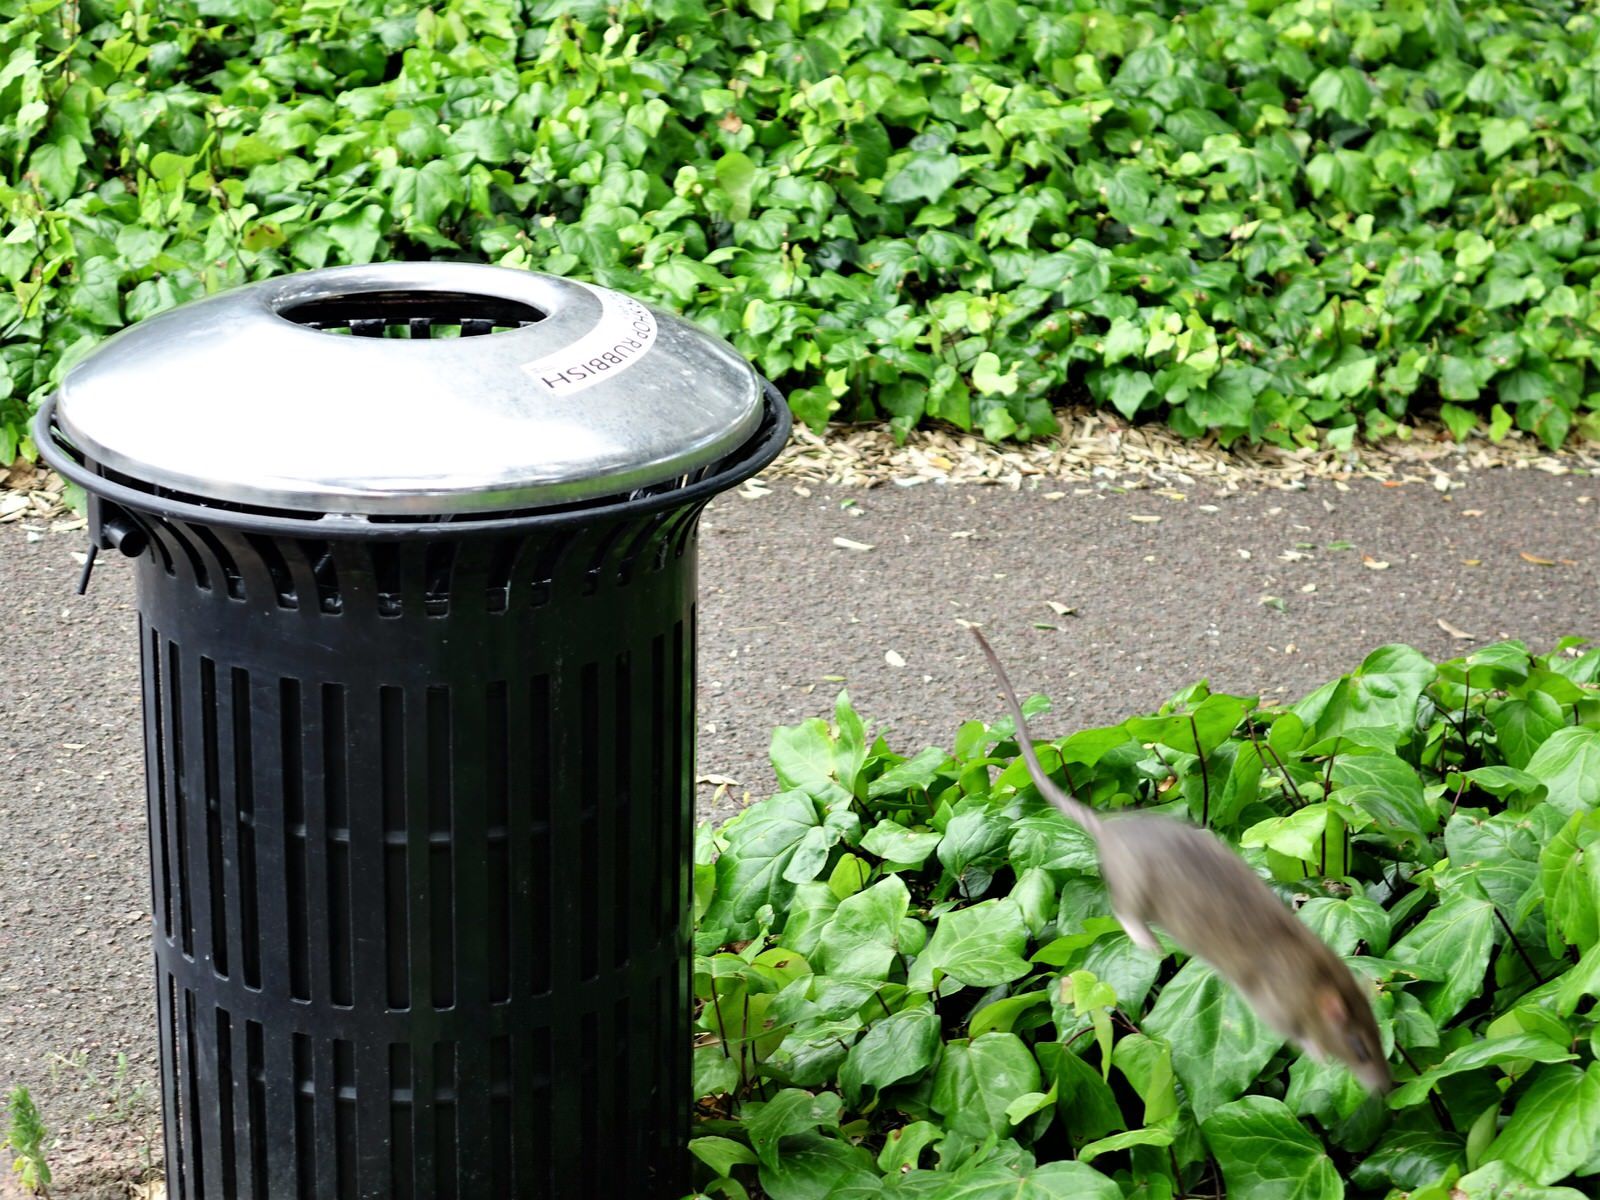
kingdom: Animalia
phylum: Chordata
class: Mammalia
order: Rodentia
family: Muridae
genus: Rattus
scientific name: Rattus norvegicus
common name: Brown rat
